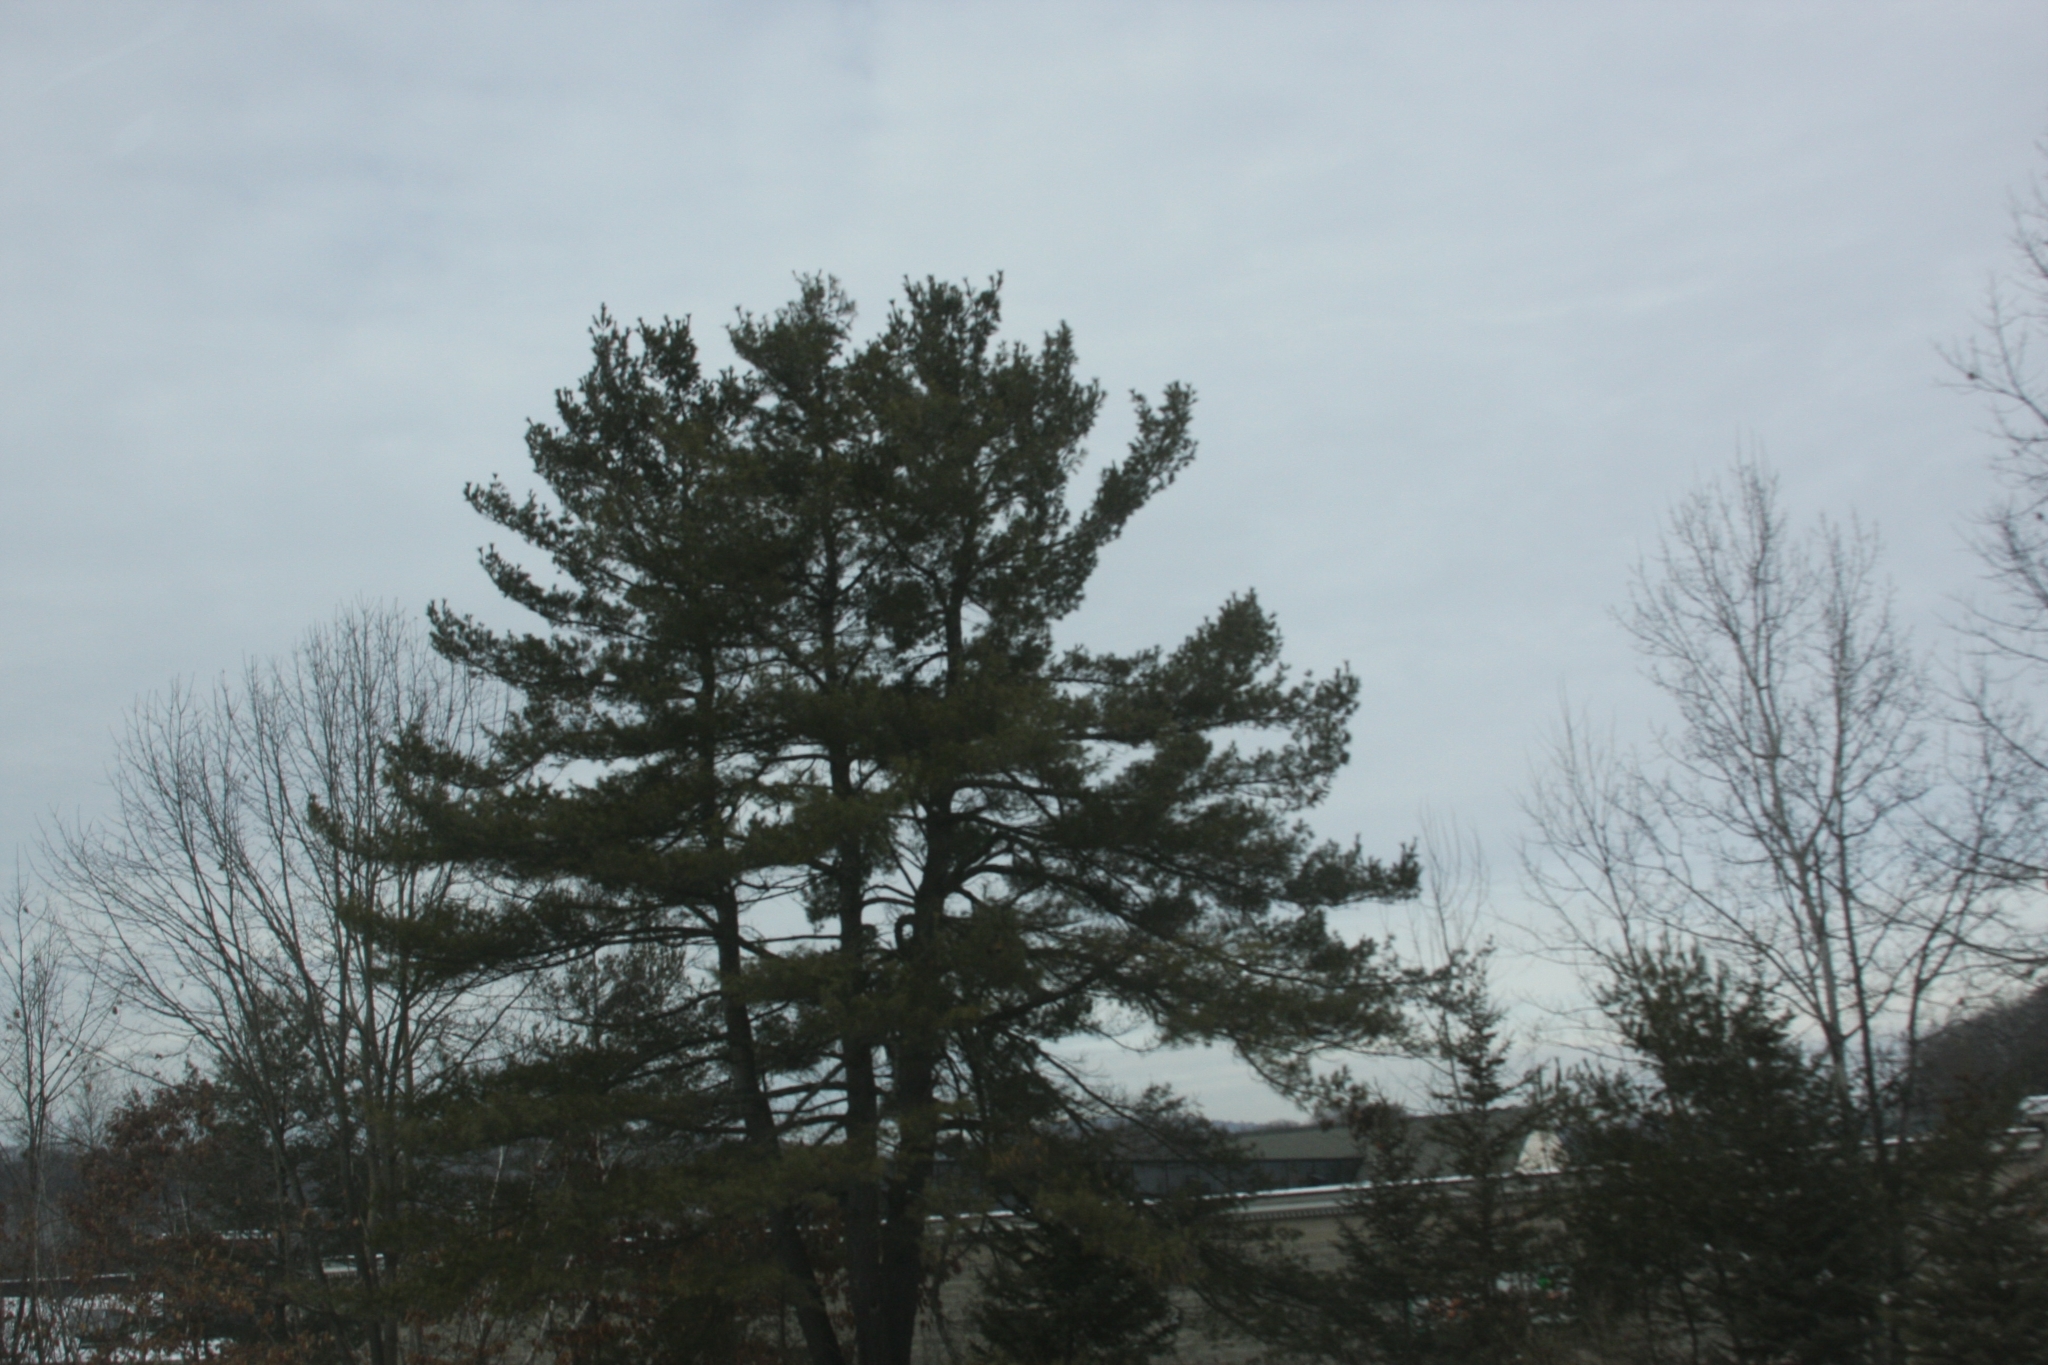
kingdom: Plantae
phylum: Tracheophyta
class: Pinopsida
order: Pinales
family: Pinaceae
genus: Pinus
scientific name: Pinus strobus
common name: Weymouth pine
